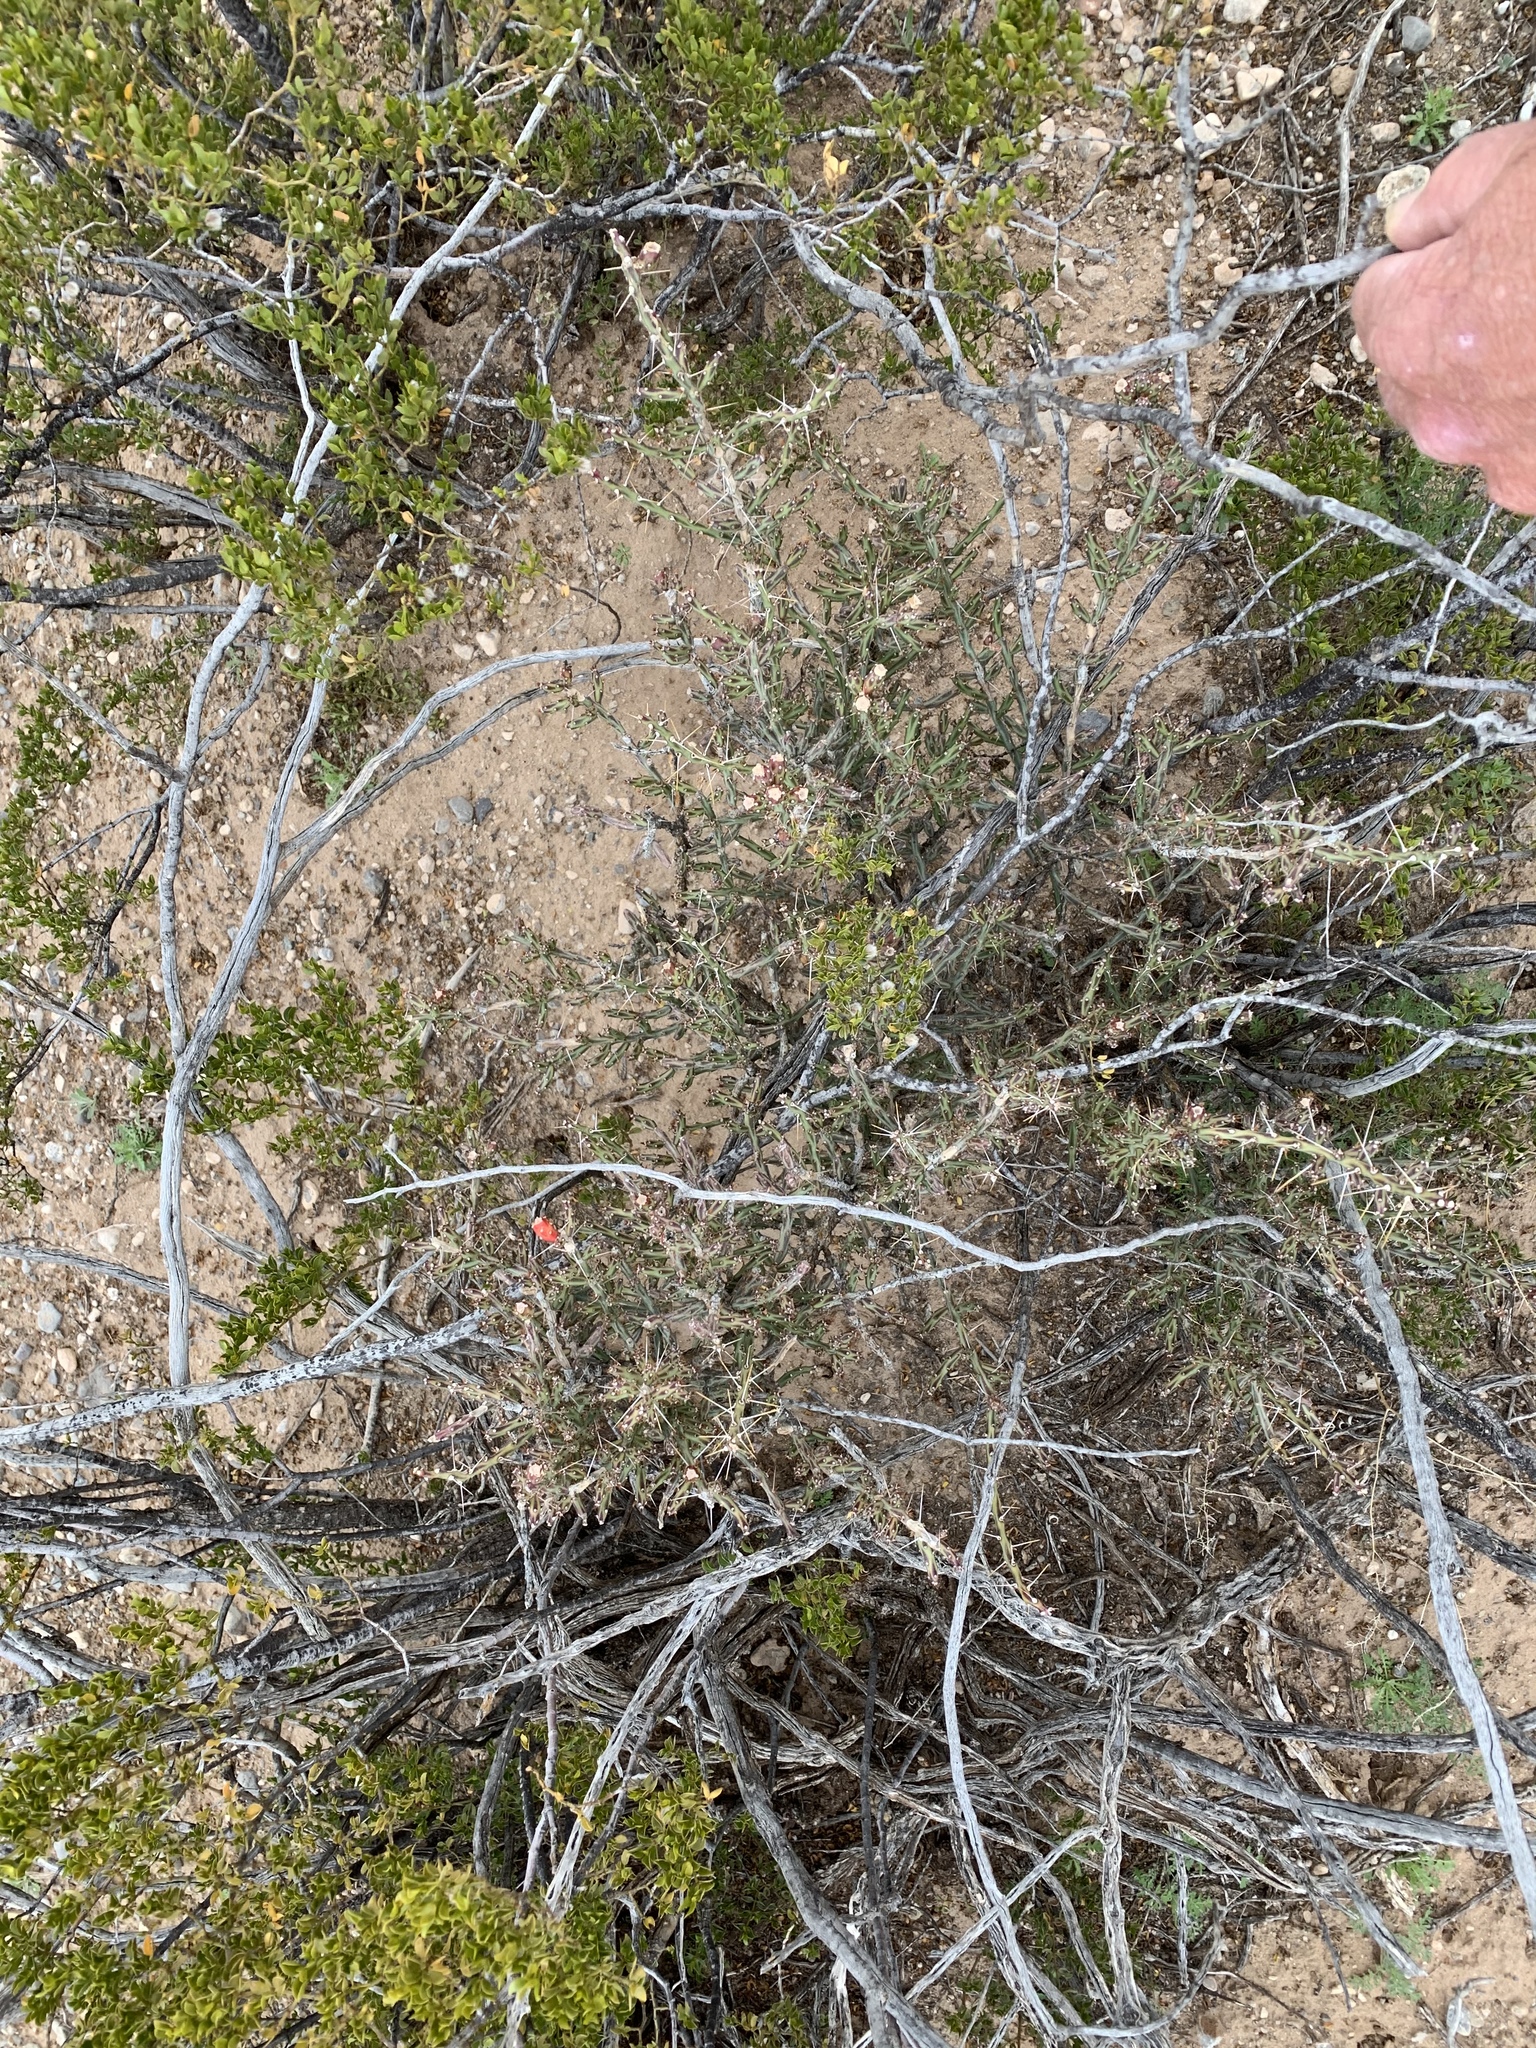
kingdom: Plantae
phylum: Tracheophyta
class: Magnoliopsida
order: Caryophyllales
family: Cactaceae
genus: Cylindropuntia
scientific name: Cylindropuntia leptocaulis
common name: Christmas cactus
